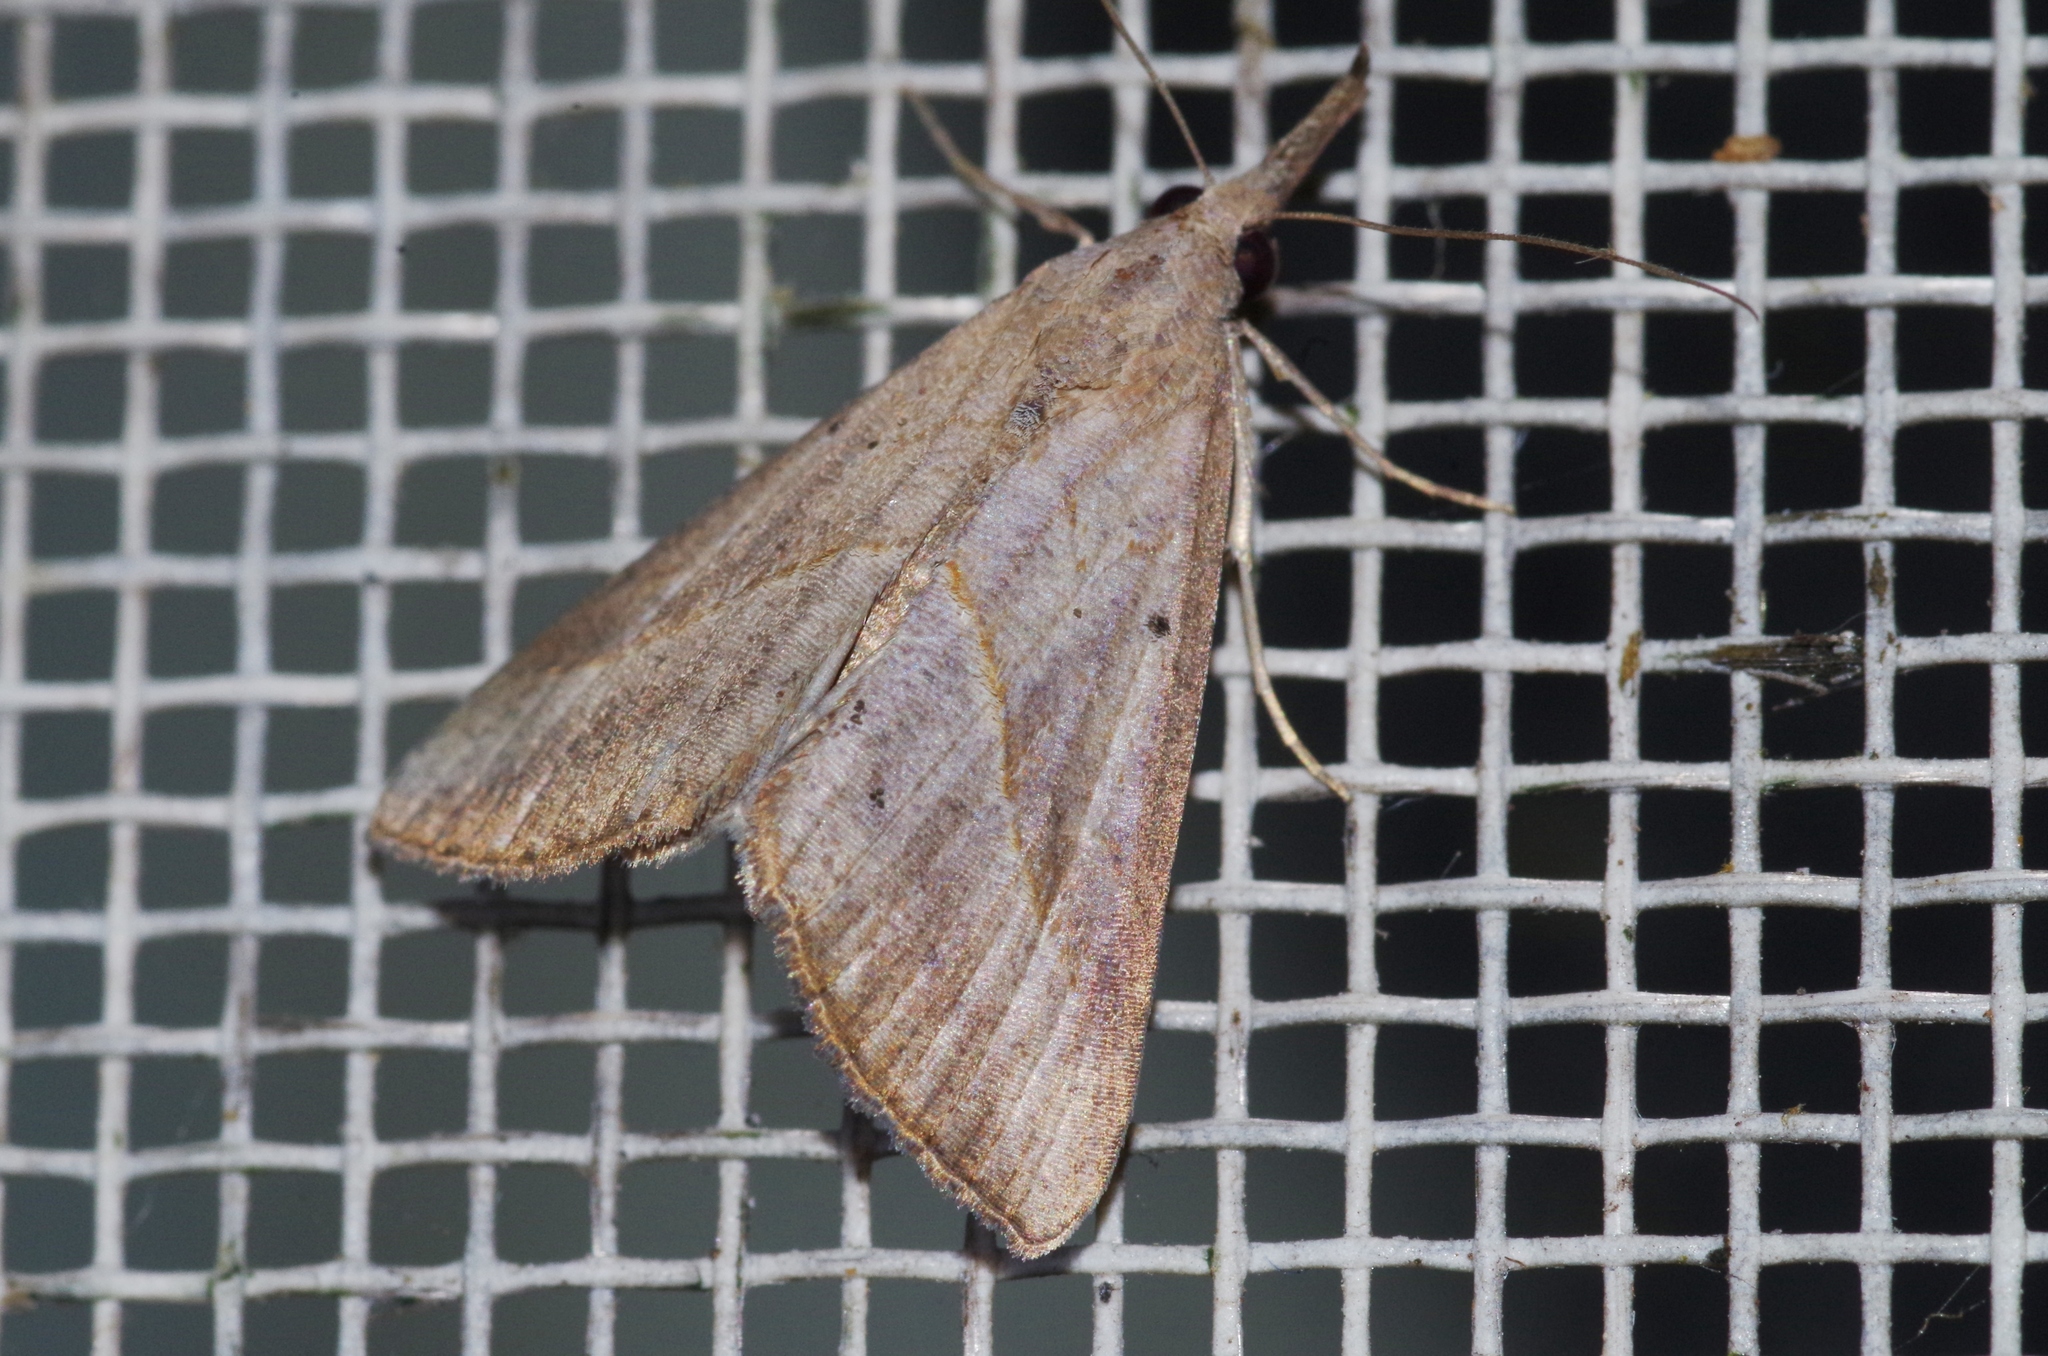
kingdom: Animalia
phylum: Arthropoda
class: Insecta
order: Lepidoptera
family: Erebidae
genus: Hypena
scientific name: Hypena lividalis
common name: Chevron snout
